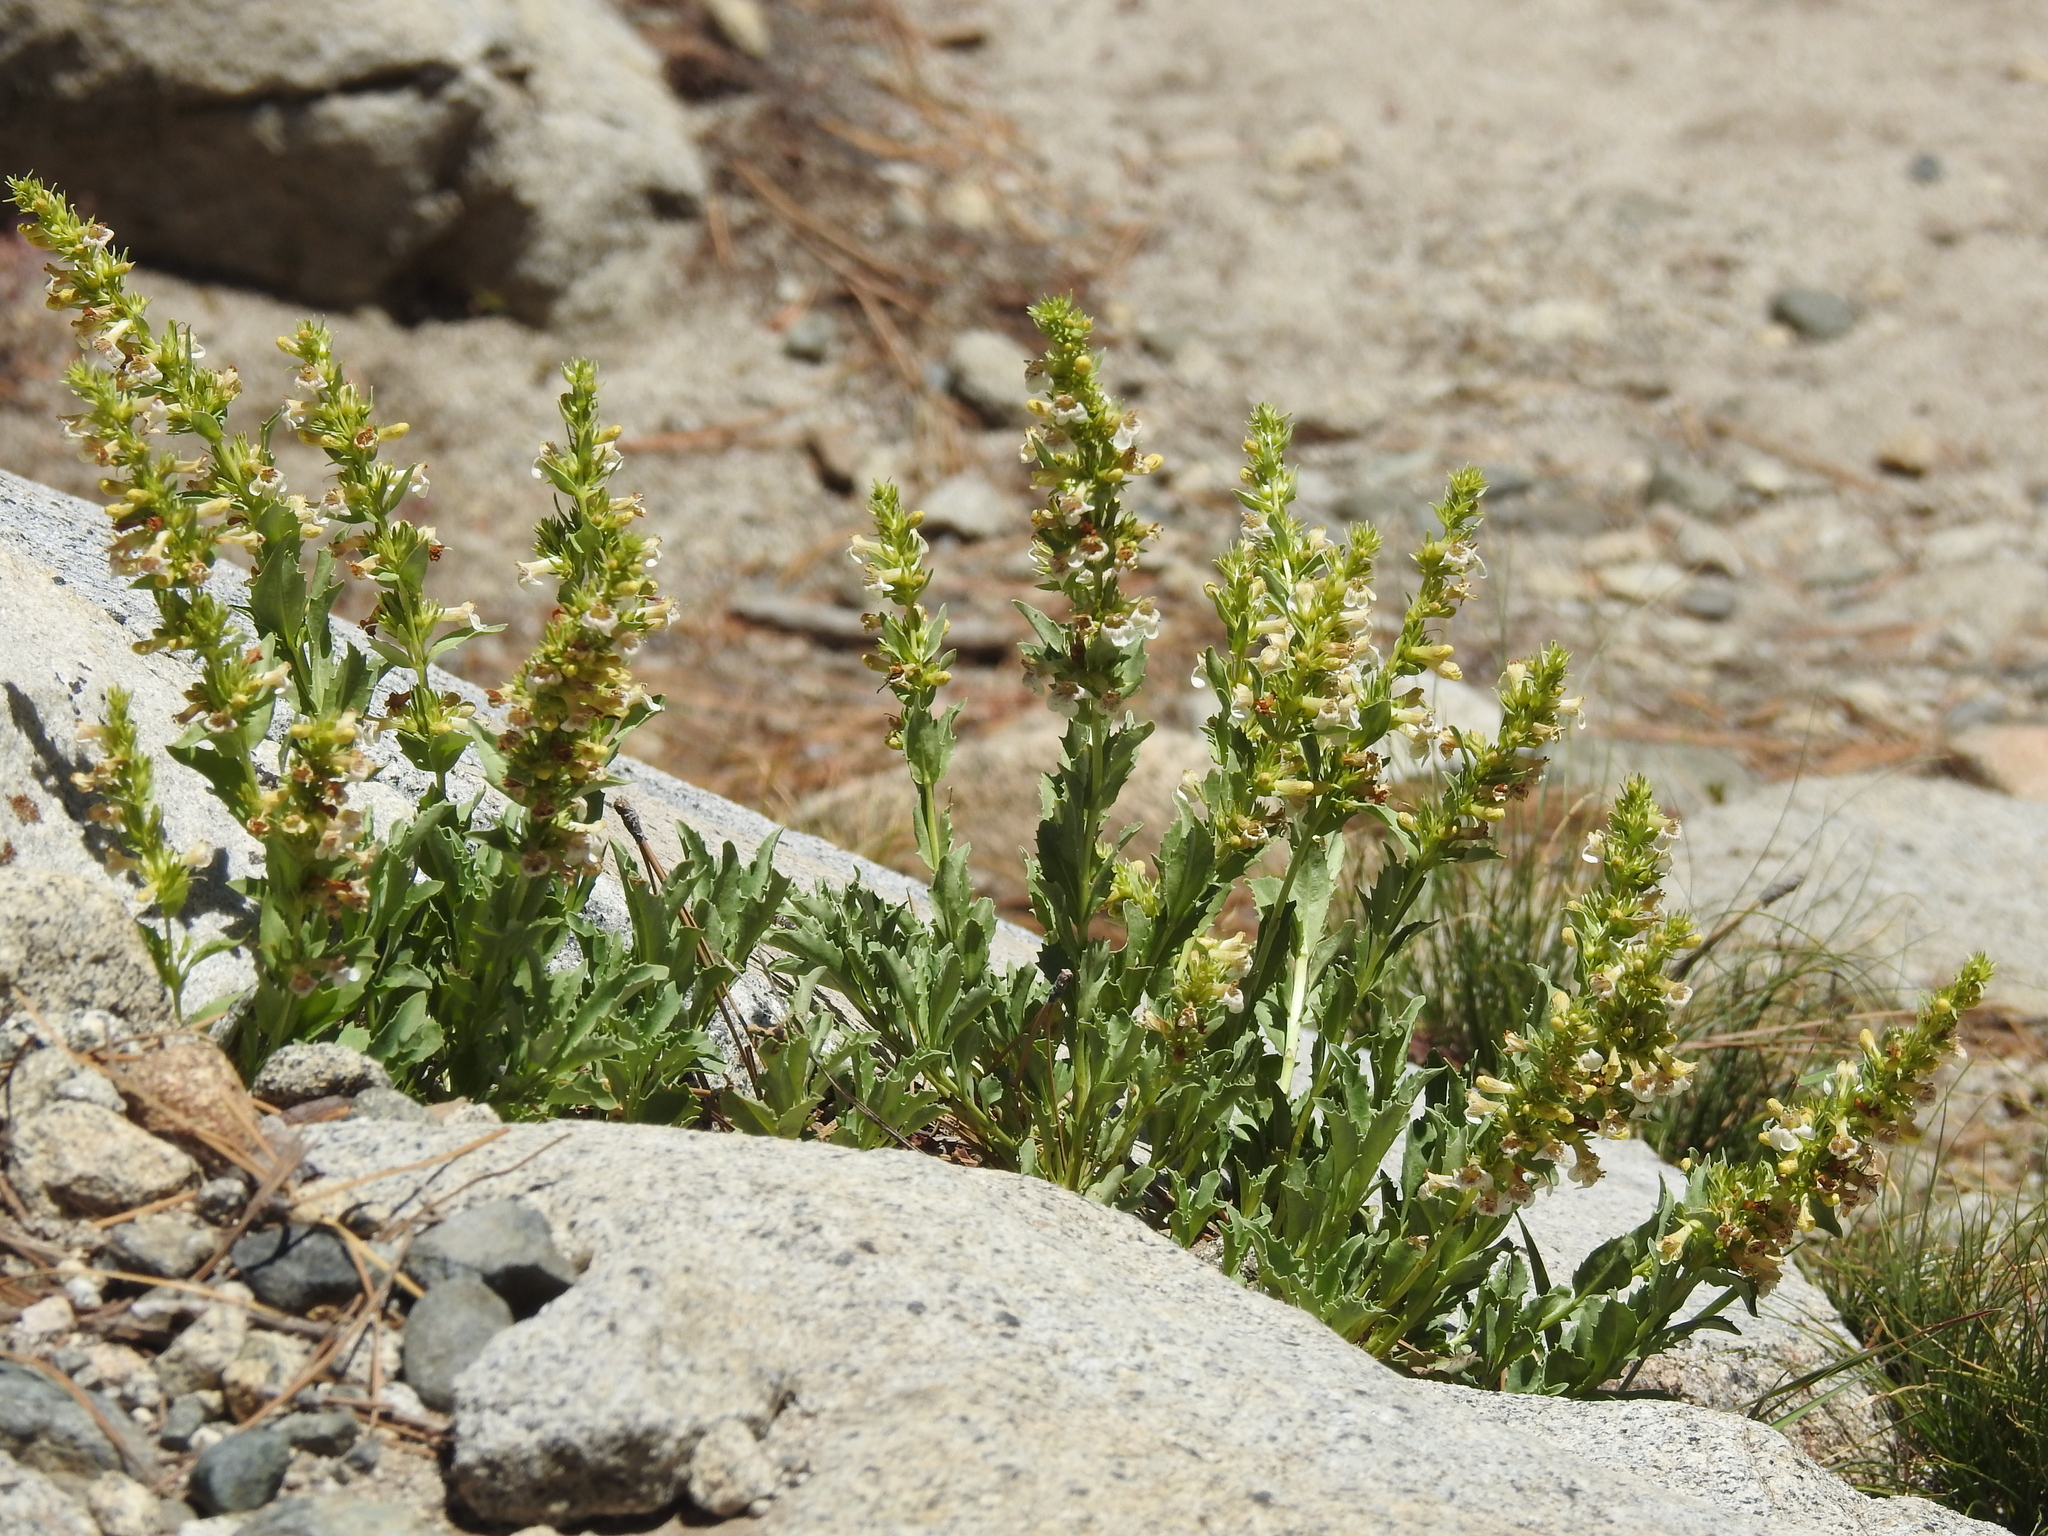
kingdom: Plantae
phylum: Tracheophyta
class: Magnoliopsida
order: Lamiales
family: Plantaginaceae
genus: Penstemon
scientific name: Penstemon deustus
